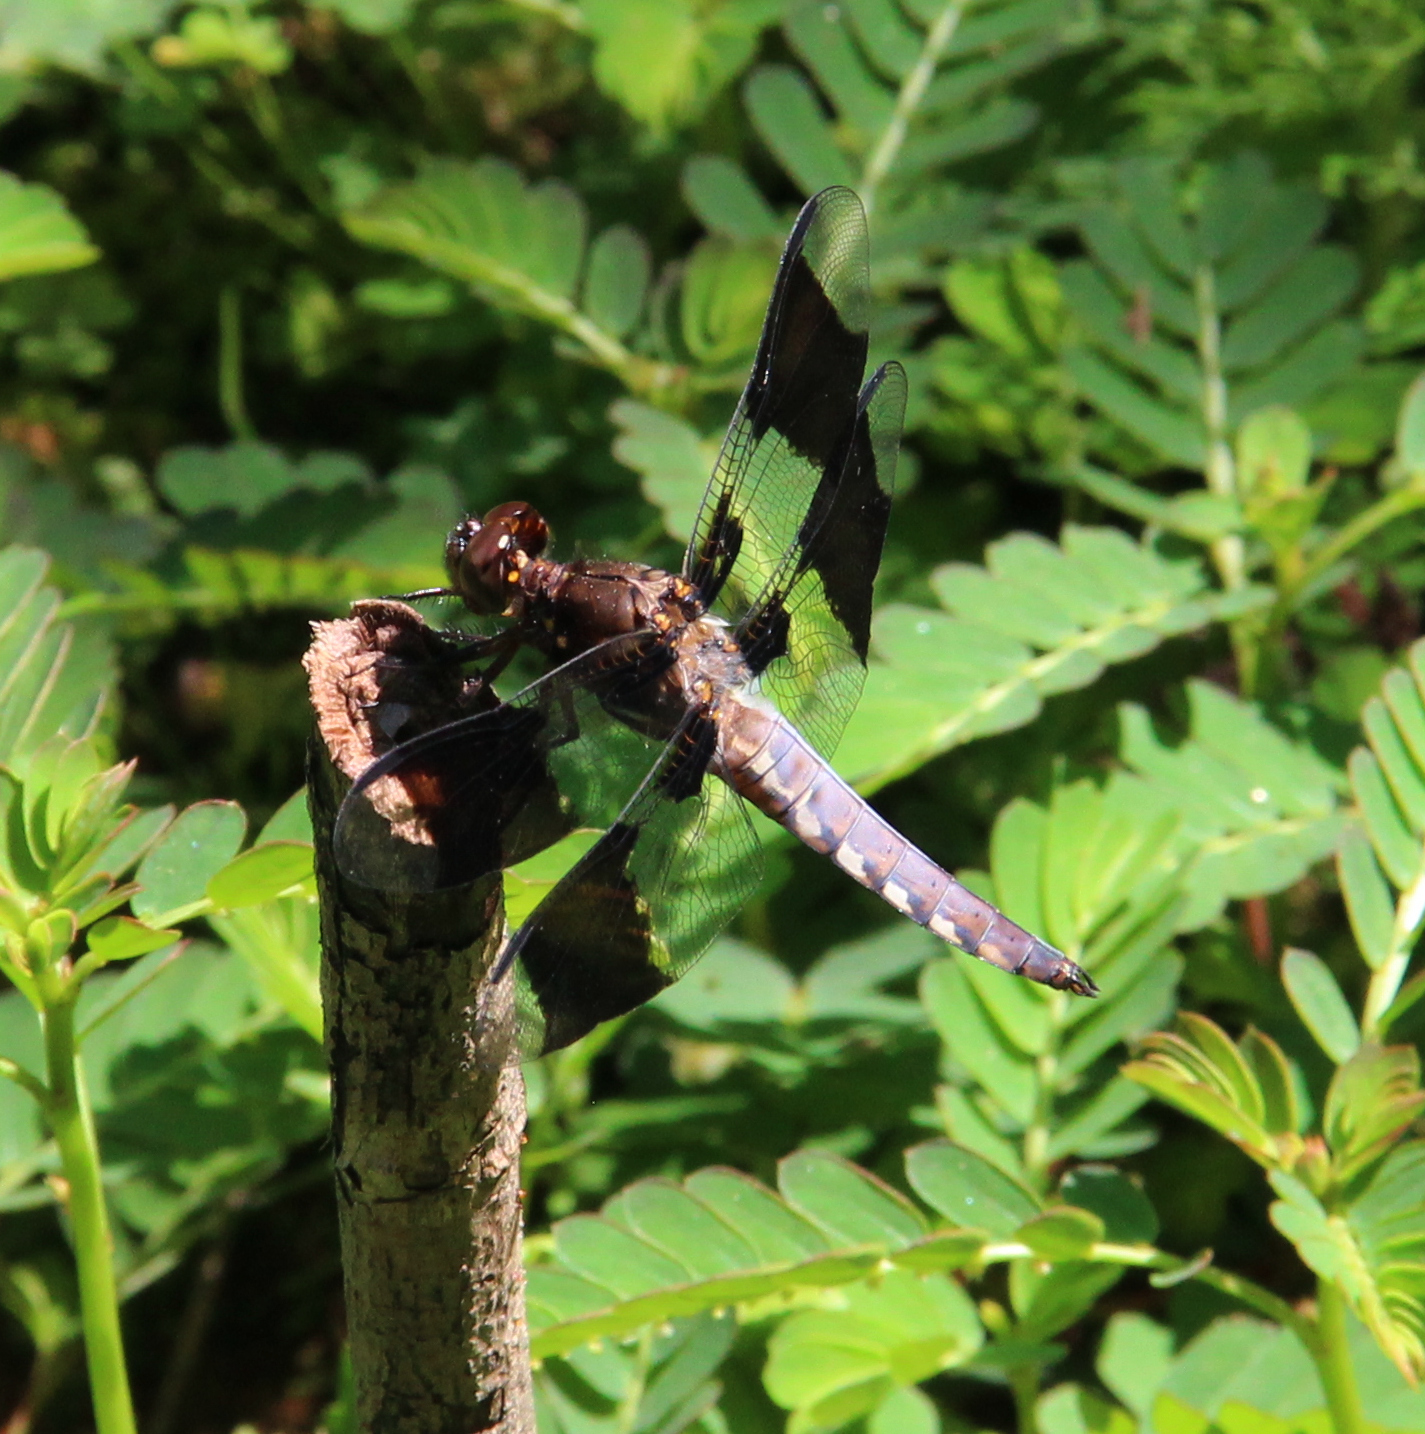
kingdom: Animalia
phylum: Arthropoda
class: Insecta
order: Odonata
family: Libellulidae
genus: Plathemis
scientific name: Plathemis lydia
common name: Common whitetail
